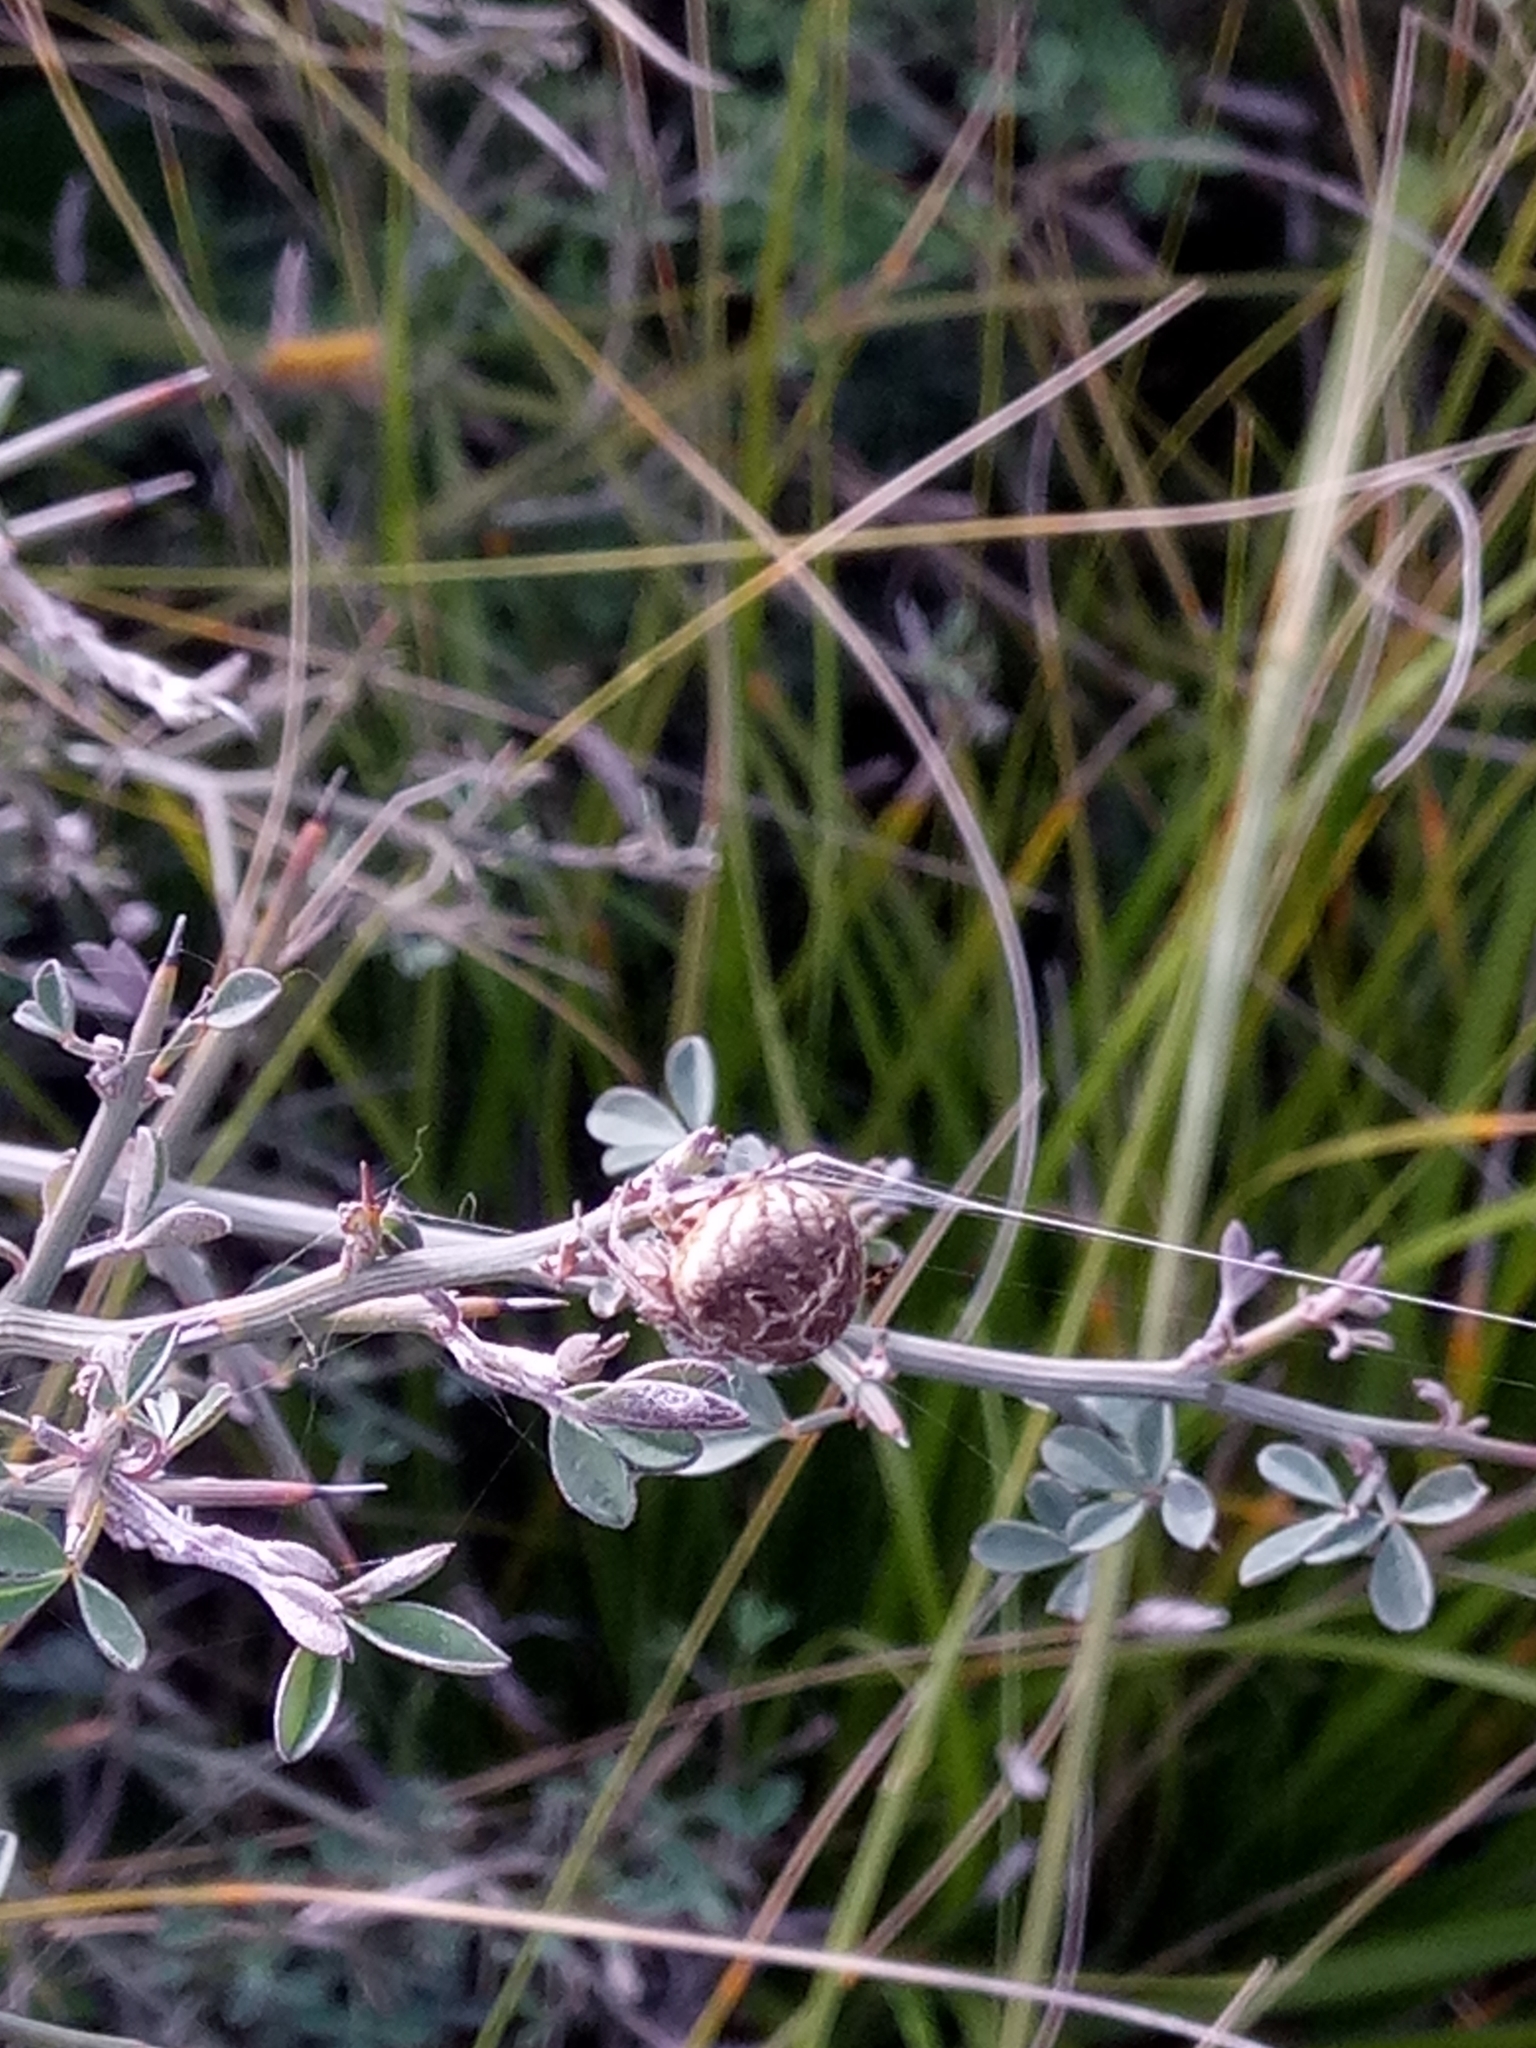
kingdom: Animalia
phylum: Arthropoda
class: Arachnida
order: Araneae
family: Araneidae
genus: Agalenatea
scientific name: Agalenatea redii
